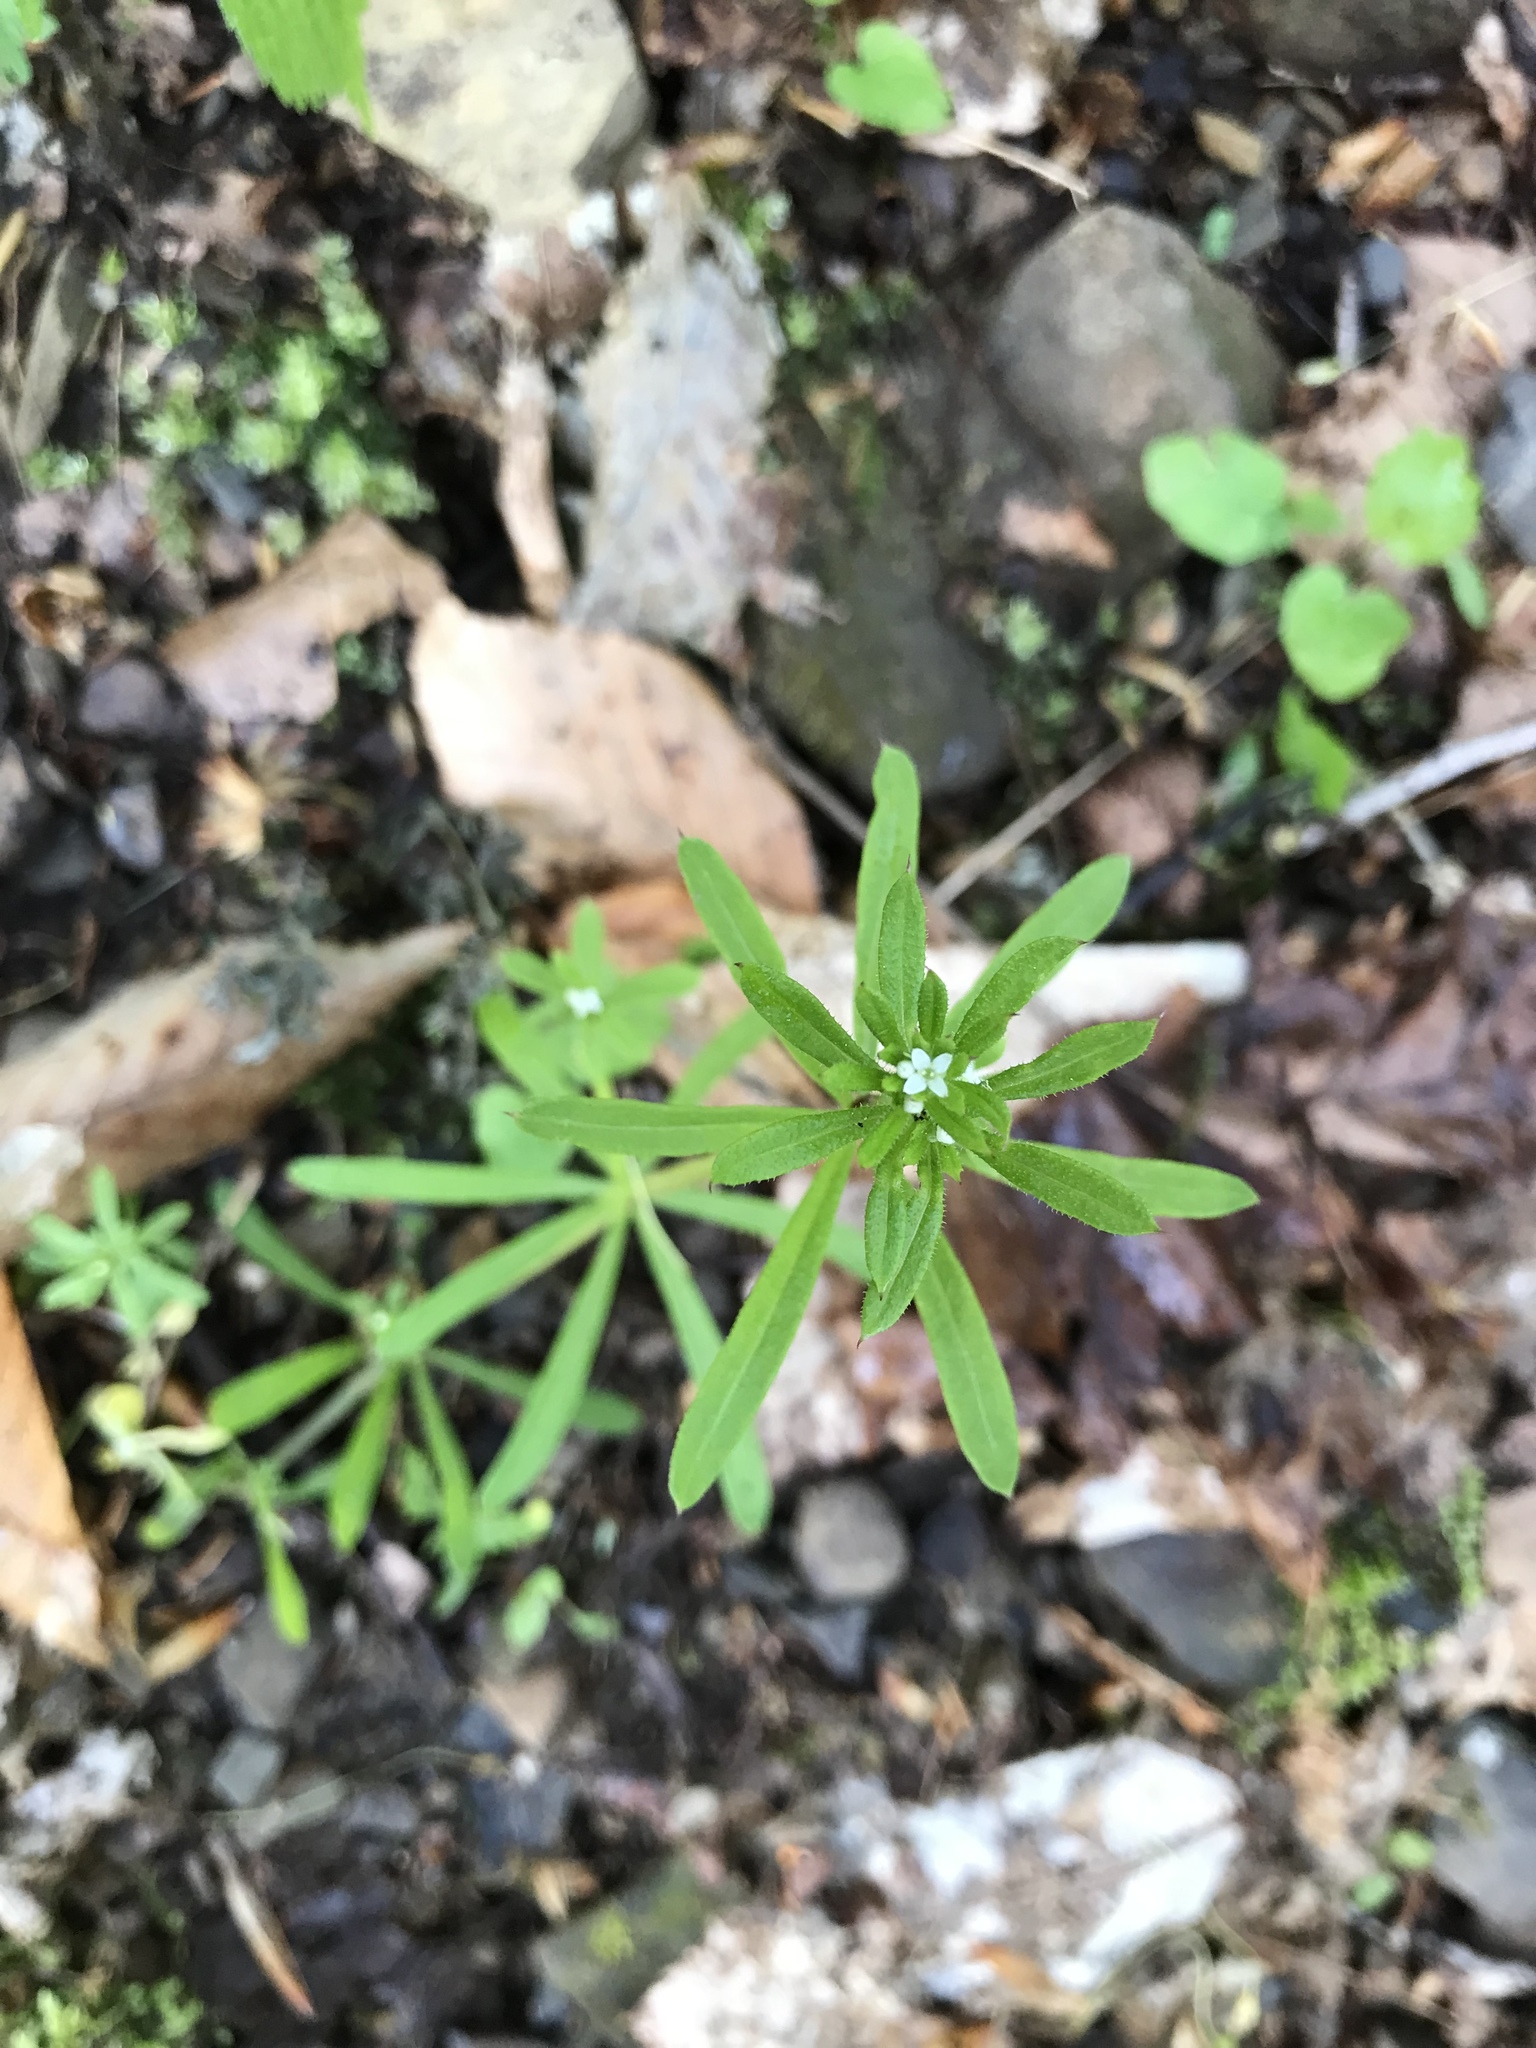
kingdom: Plantae
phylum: Tracheophyta
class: Magnoliopsida
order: Gentianales
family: Rubiaceae
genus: Galium
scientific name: Galium aparine
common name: Cleavers
